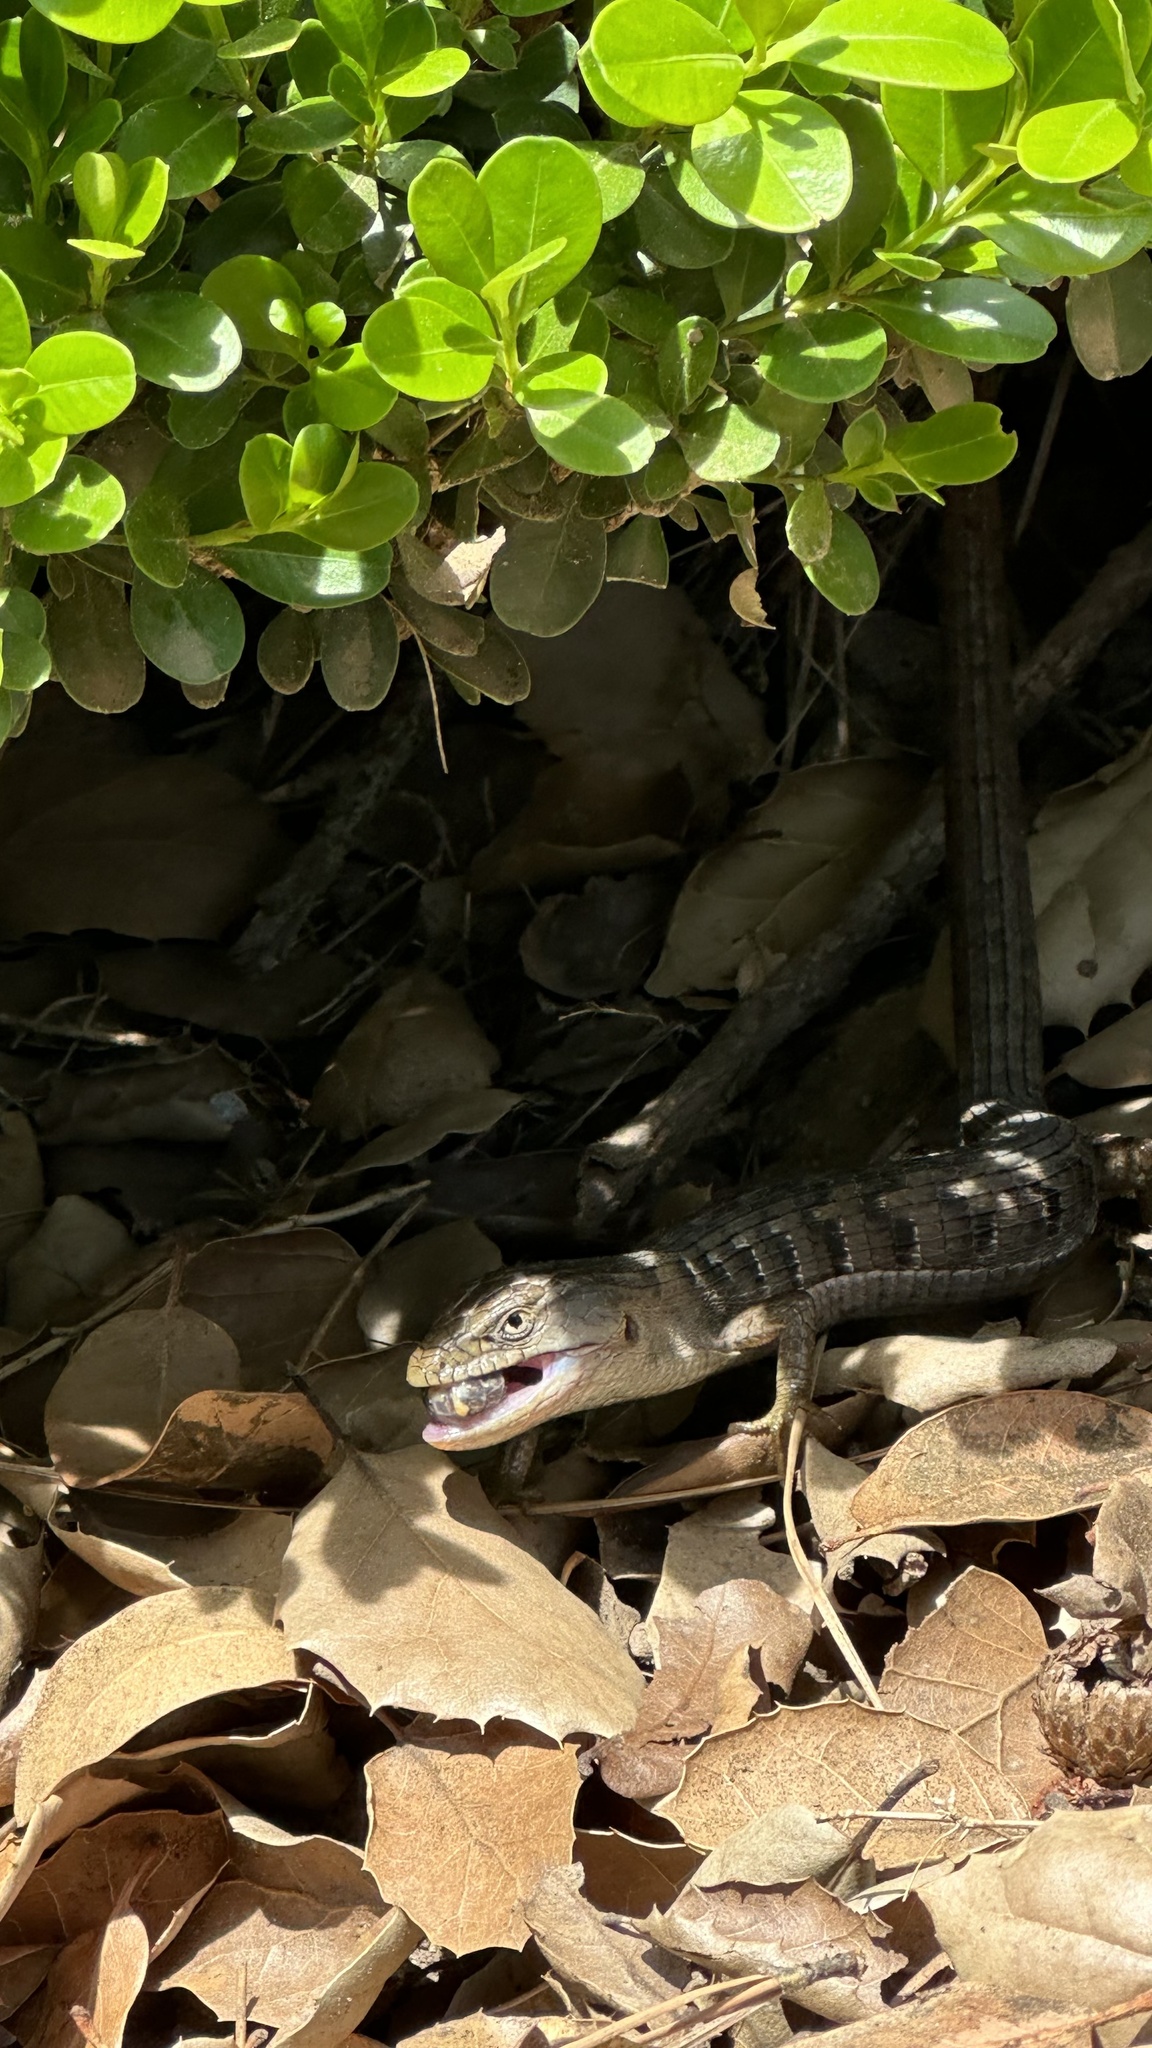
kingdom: Animalia
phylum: Chordata
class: Squamata
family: Anguidae
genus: Elgaria
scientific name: Elgaria multicarinata
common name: Southern alligator lizard
